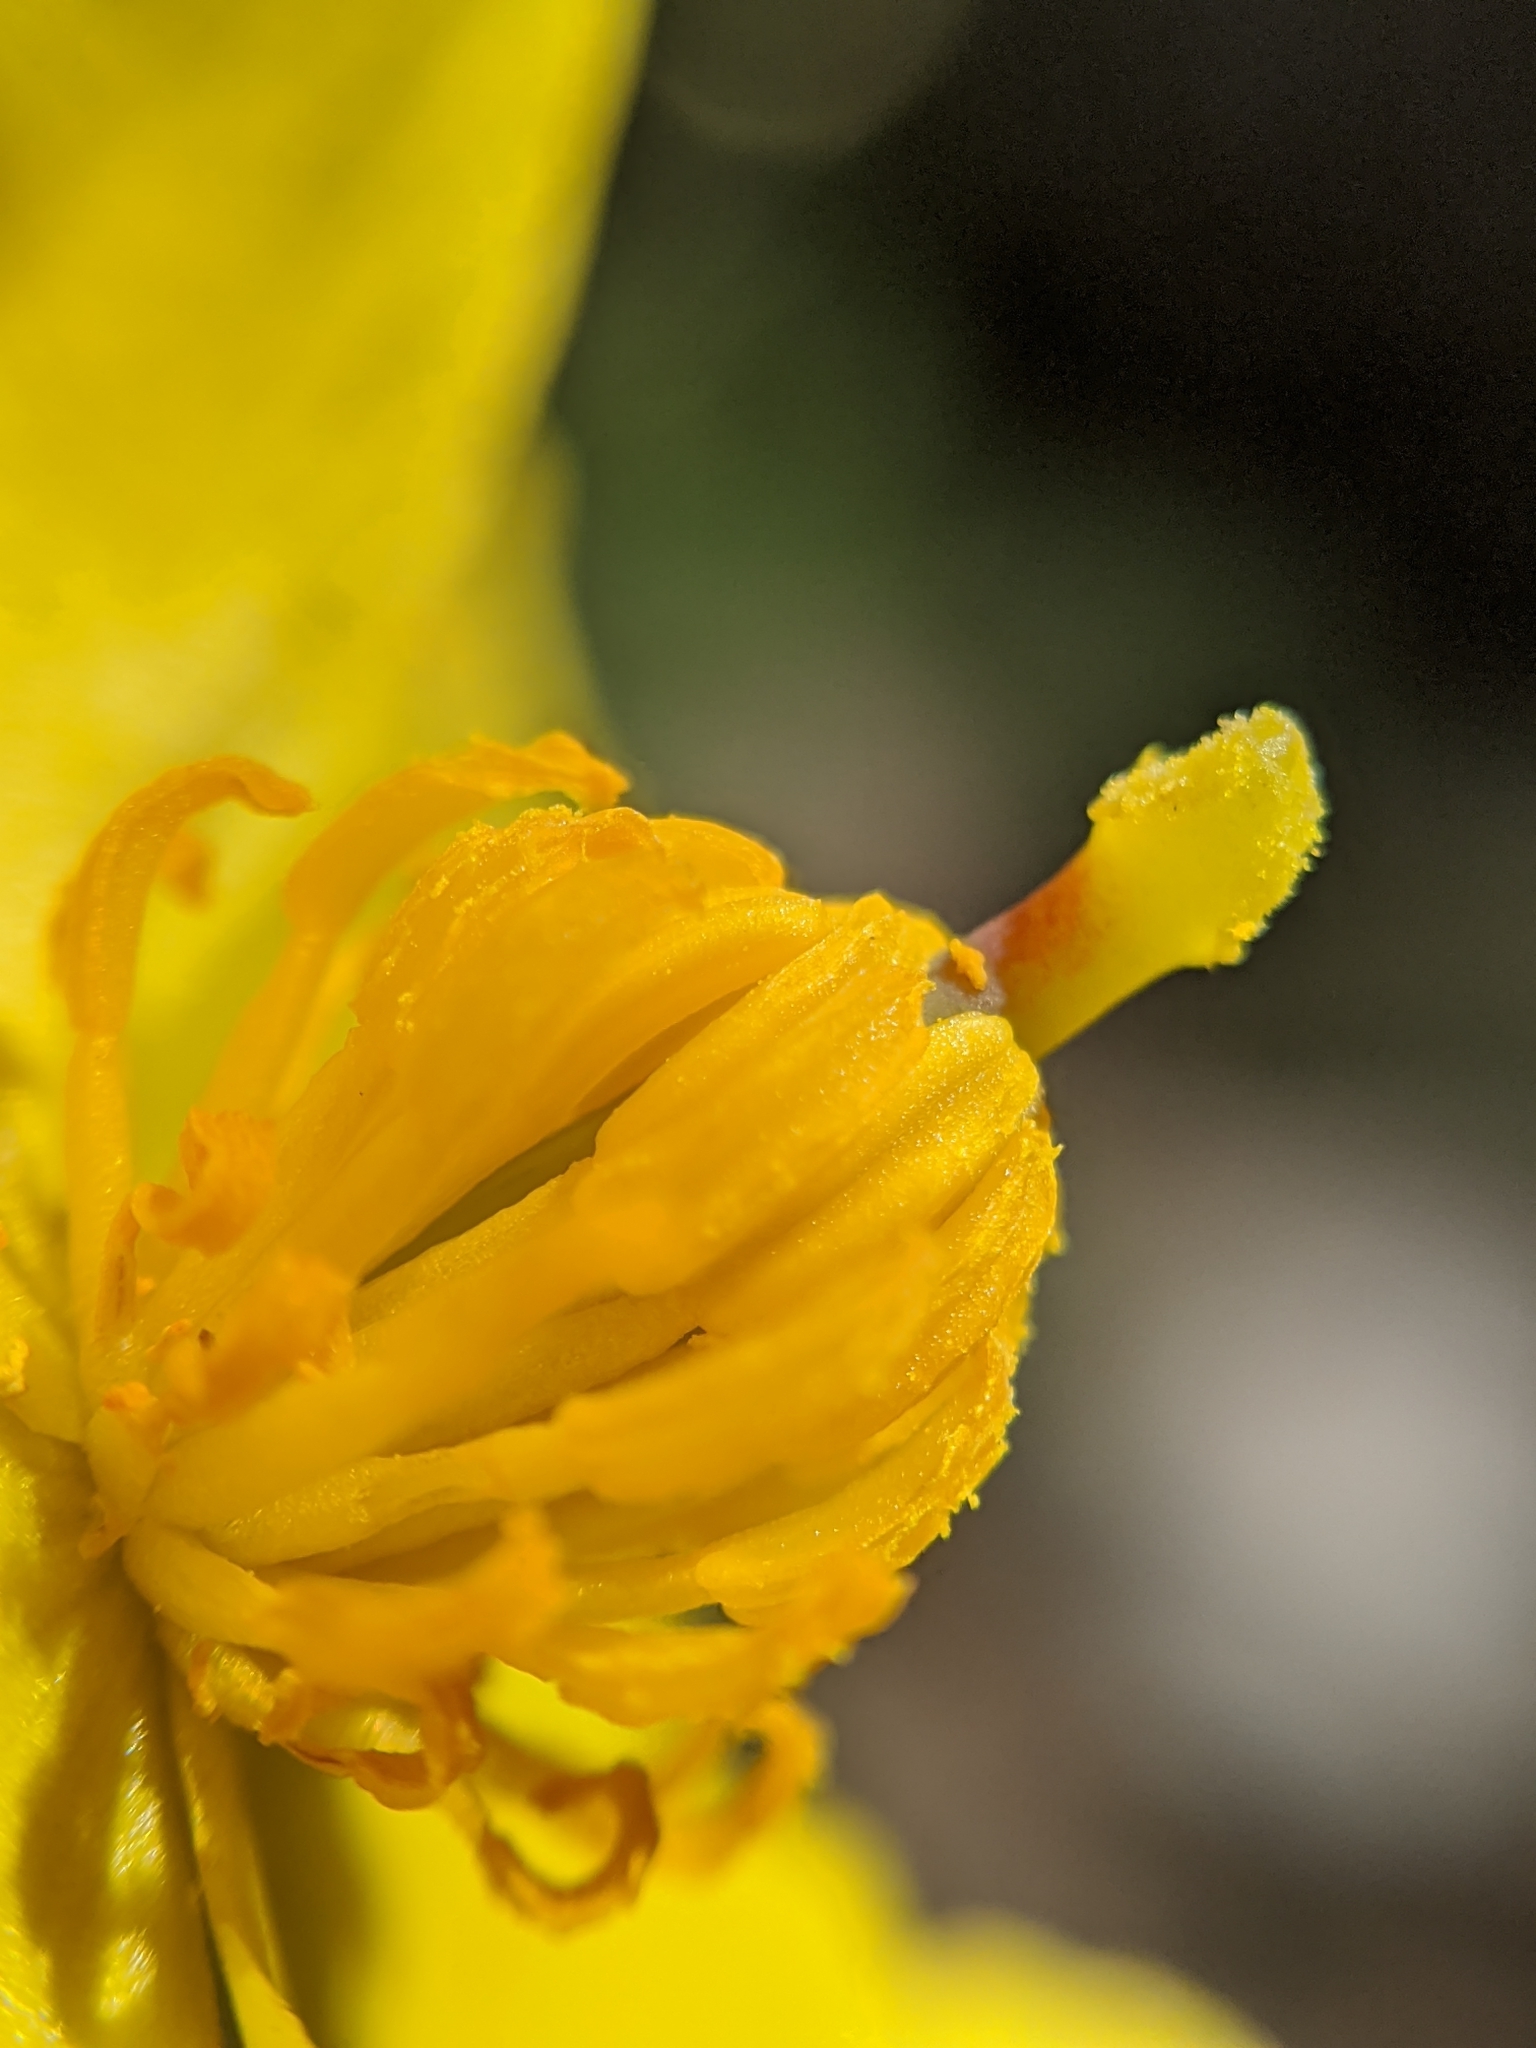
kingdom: Plantae
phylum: Tracheophyta
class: Magnoliopsida
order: Ranunculales
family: Papaveraceae
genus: Dendromecon
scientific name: Dendromecon rigida
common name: Tree poppy
